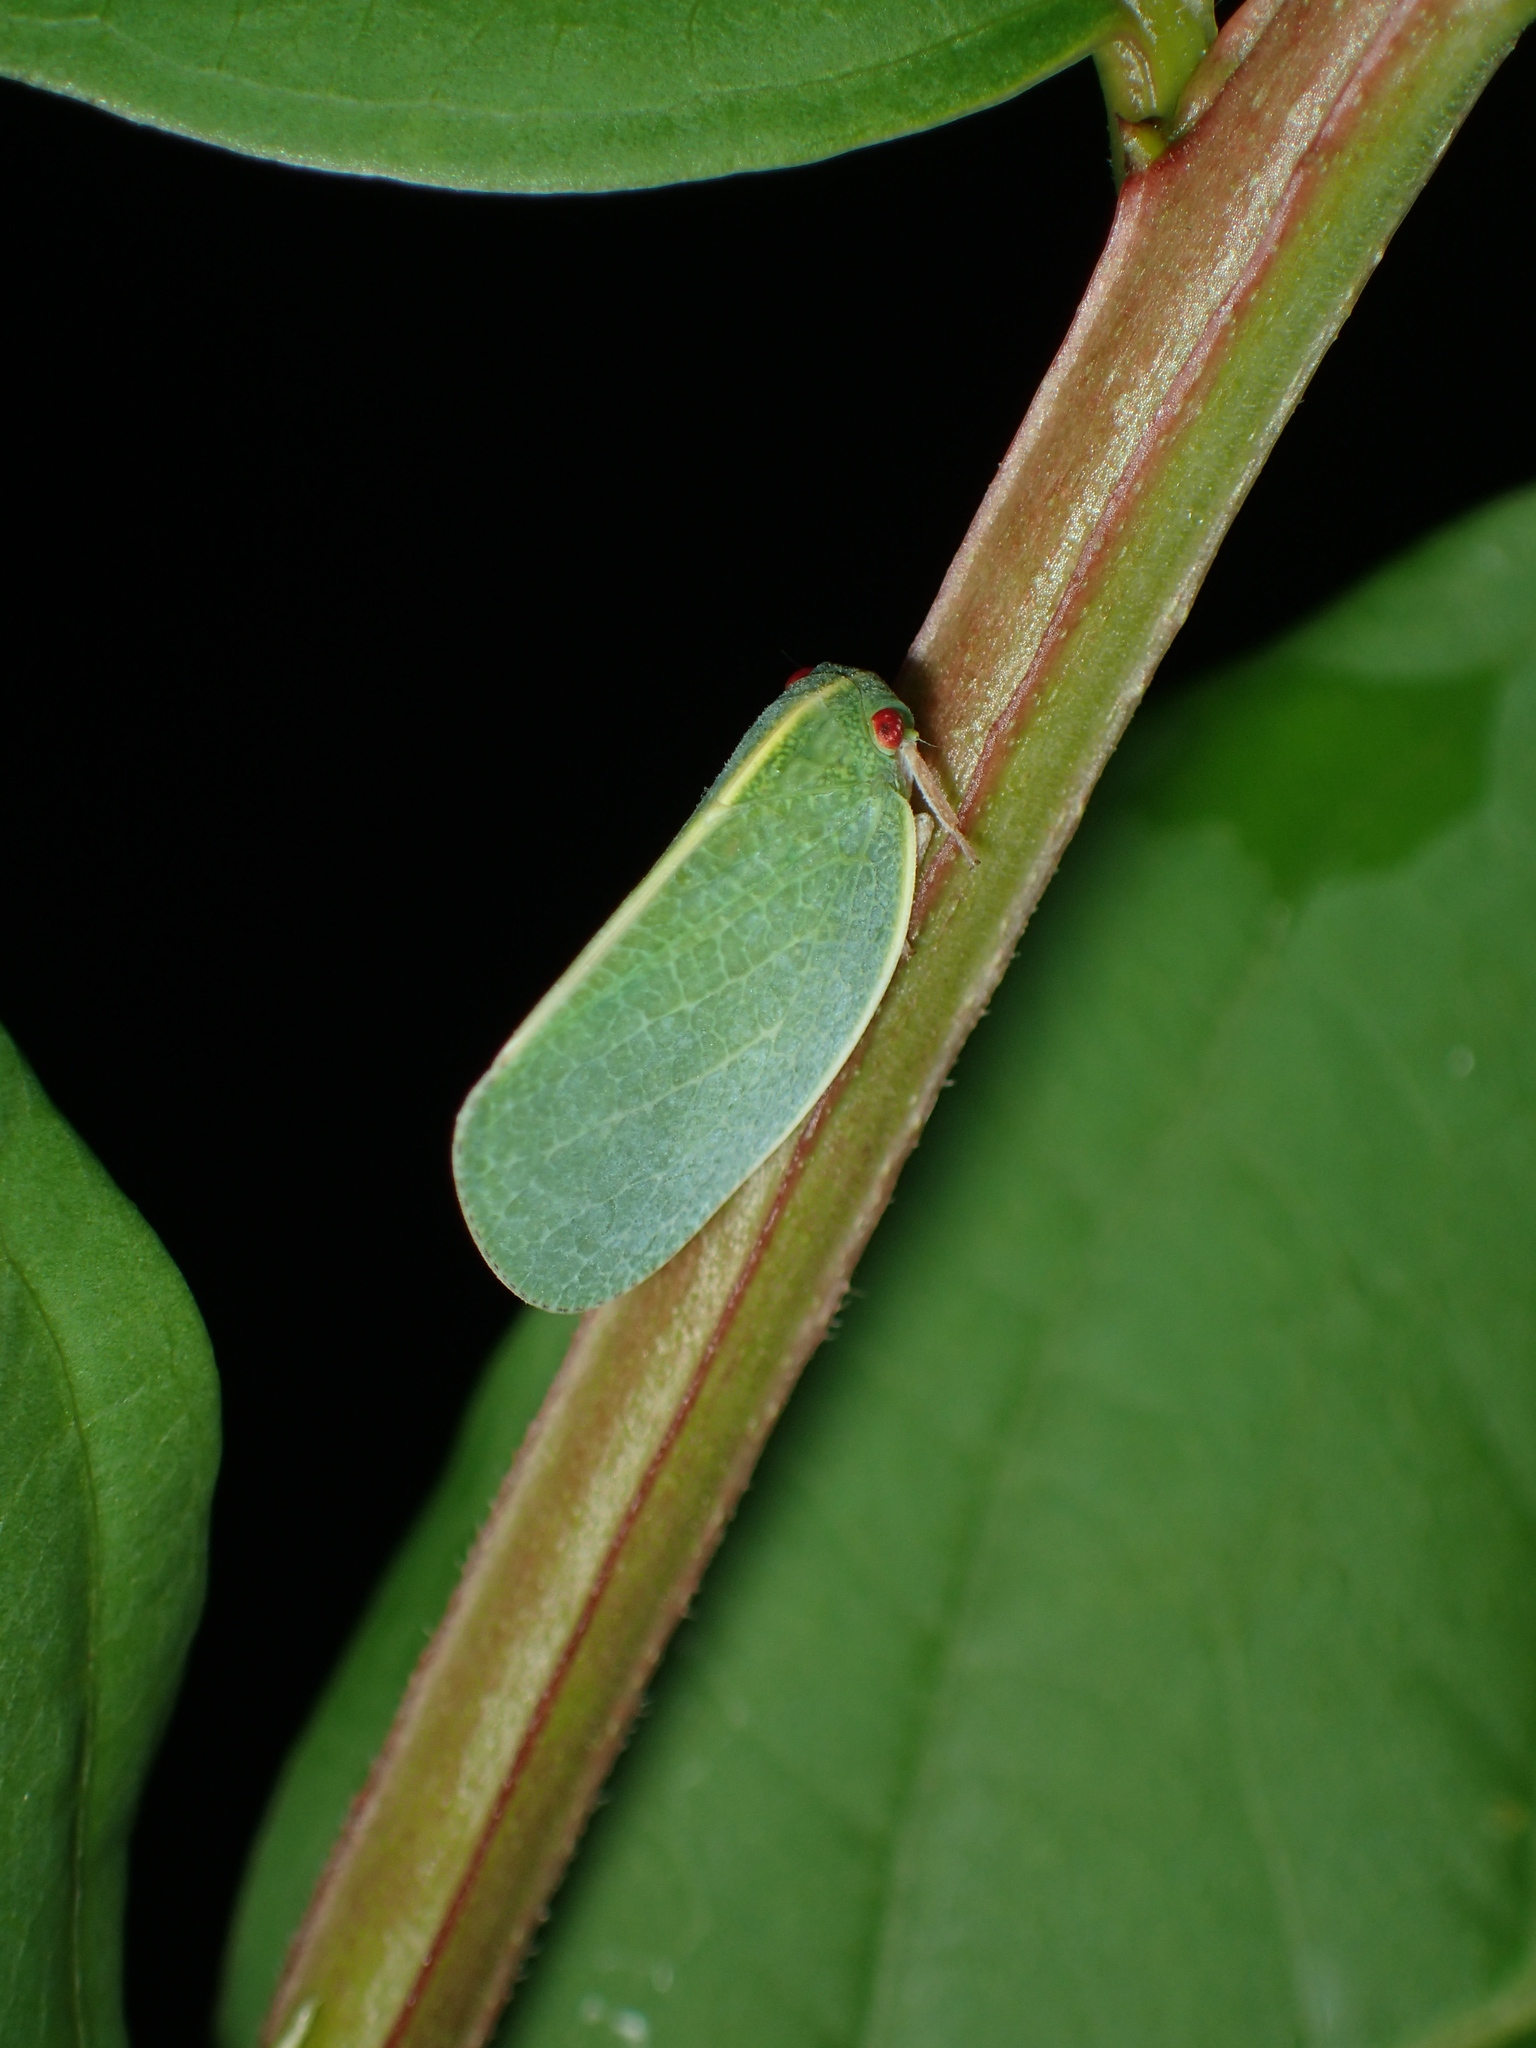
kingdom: Animalia
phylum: Arthropoda
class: Insecta
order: Hemiptera
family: Acanaloniidae
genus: Acanalonia
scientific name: Acanalonia servillei
